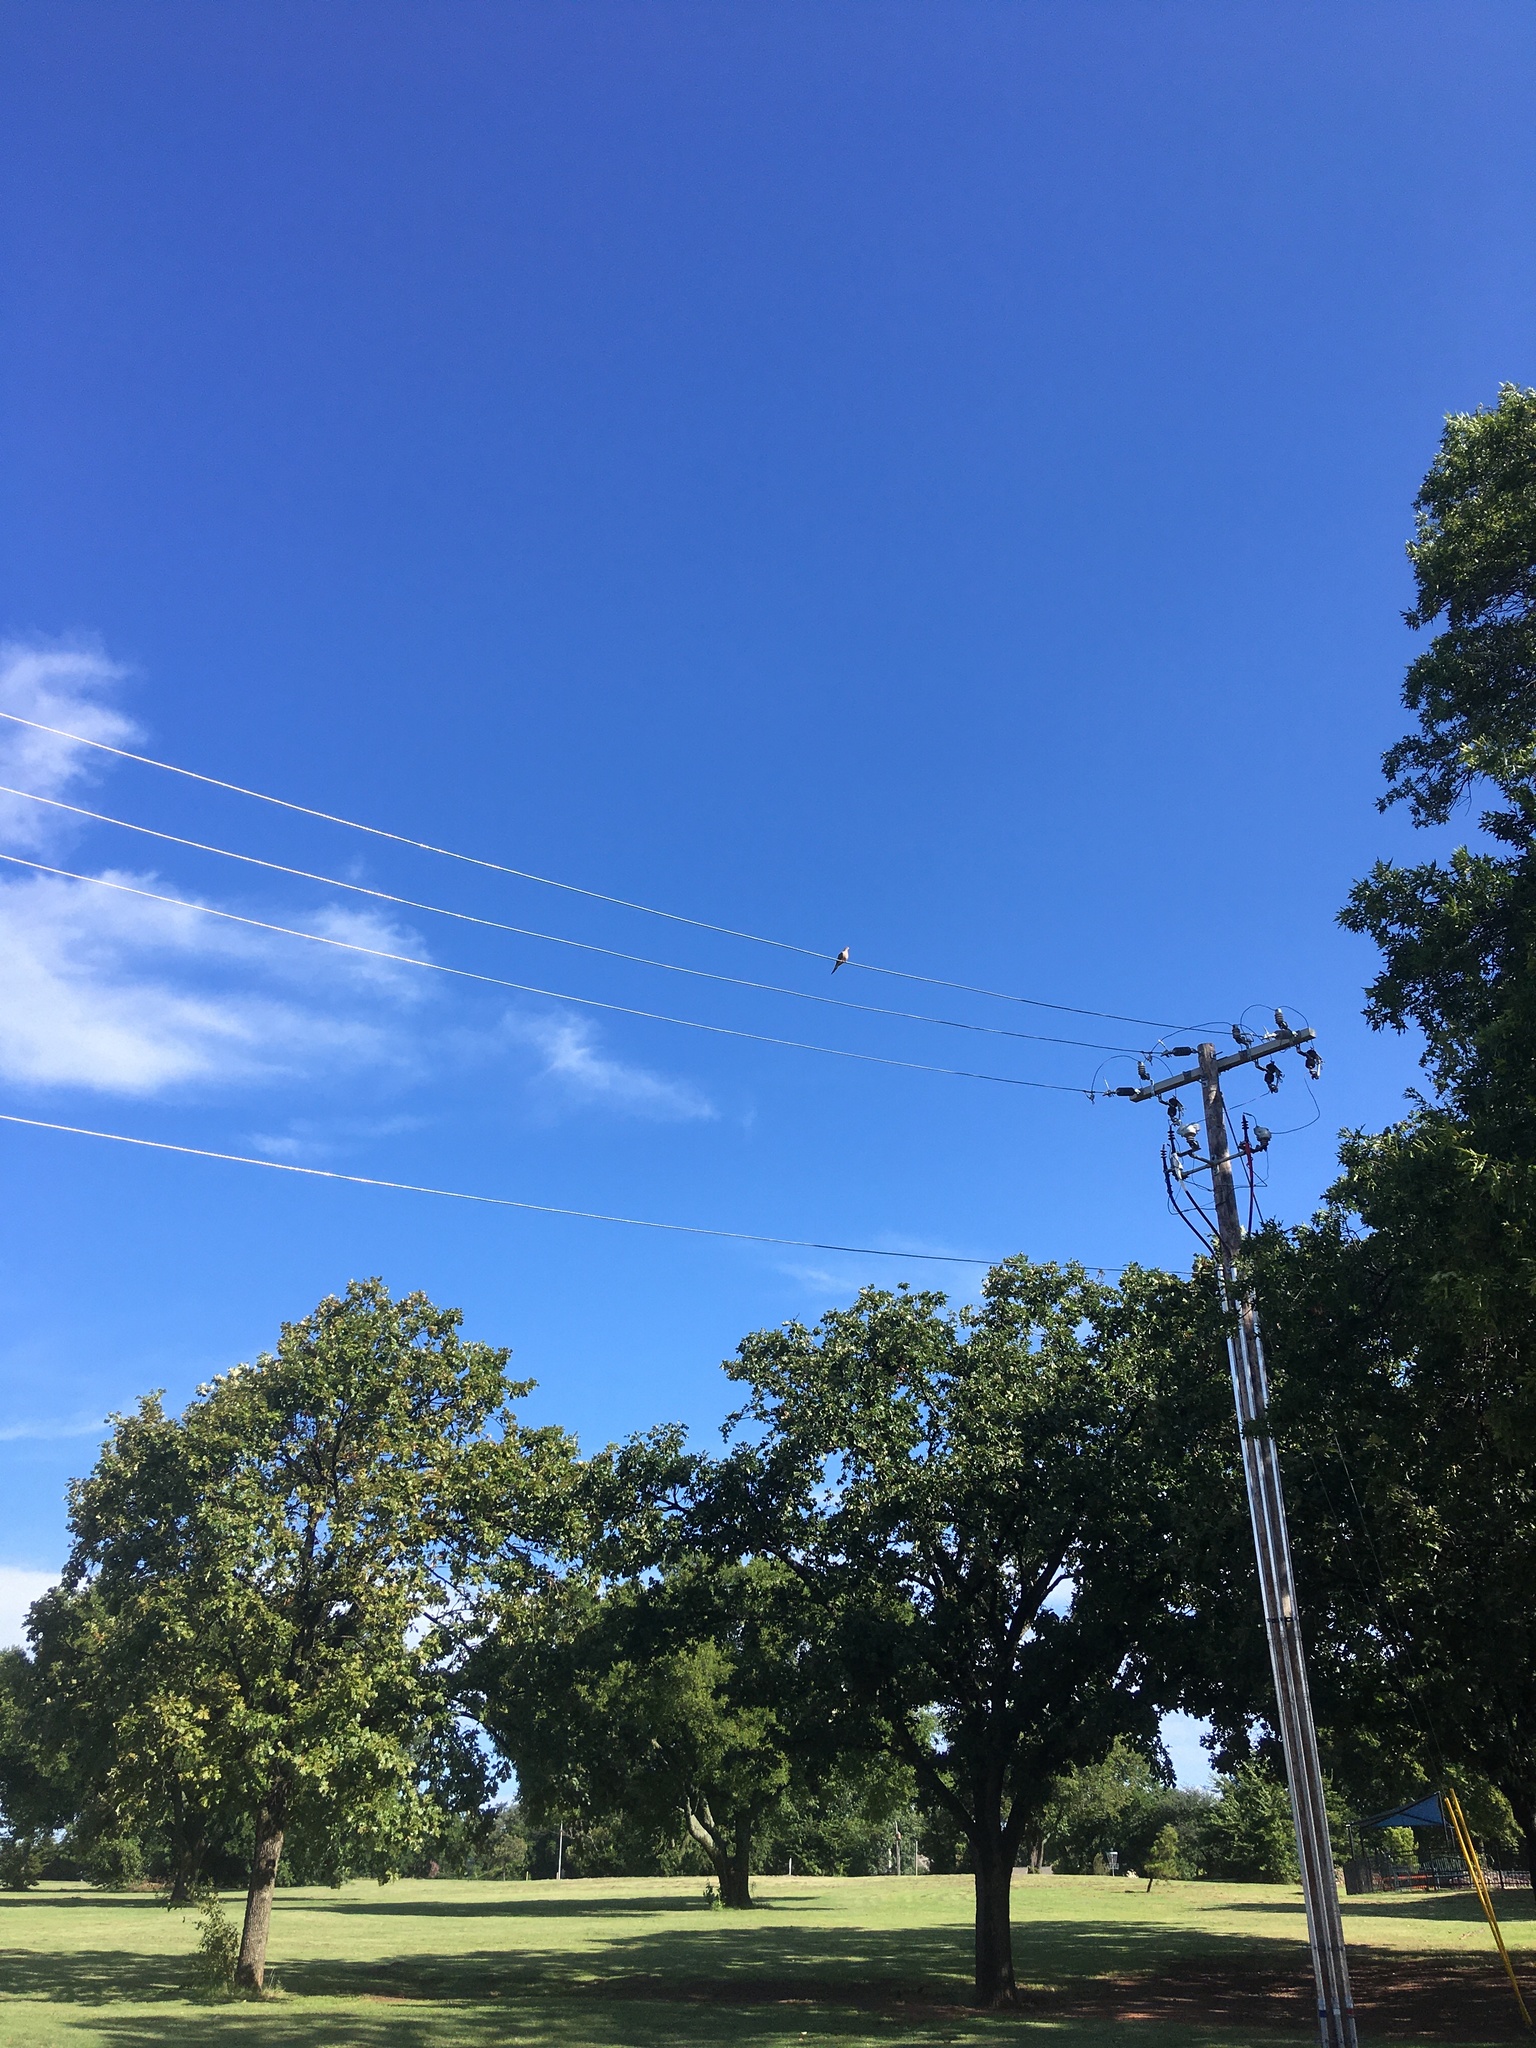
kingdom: Animalia
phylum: Chordata
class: Aves
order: Columbiformes
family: Columbidae
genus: Zenaida
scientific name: Zenaida macroura
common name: Mourning dove
